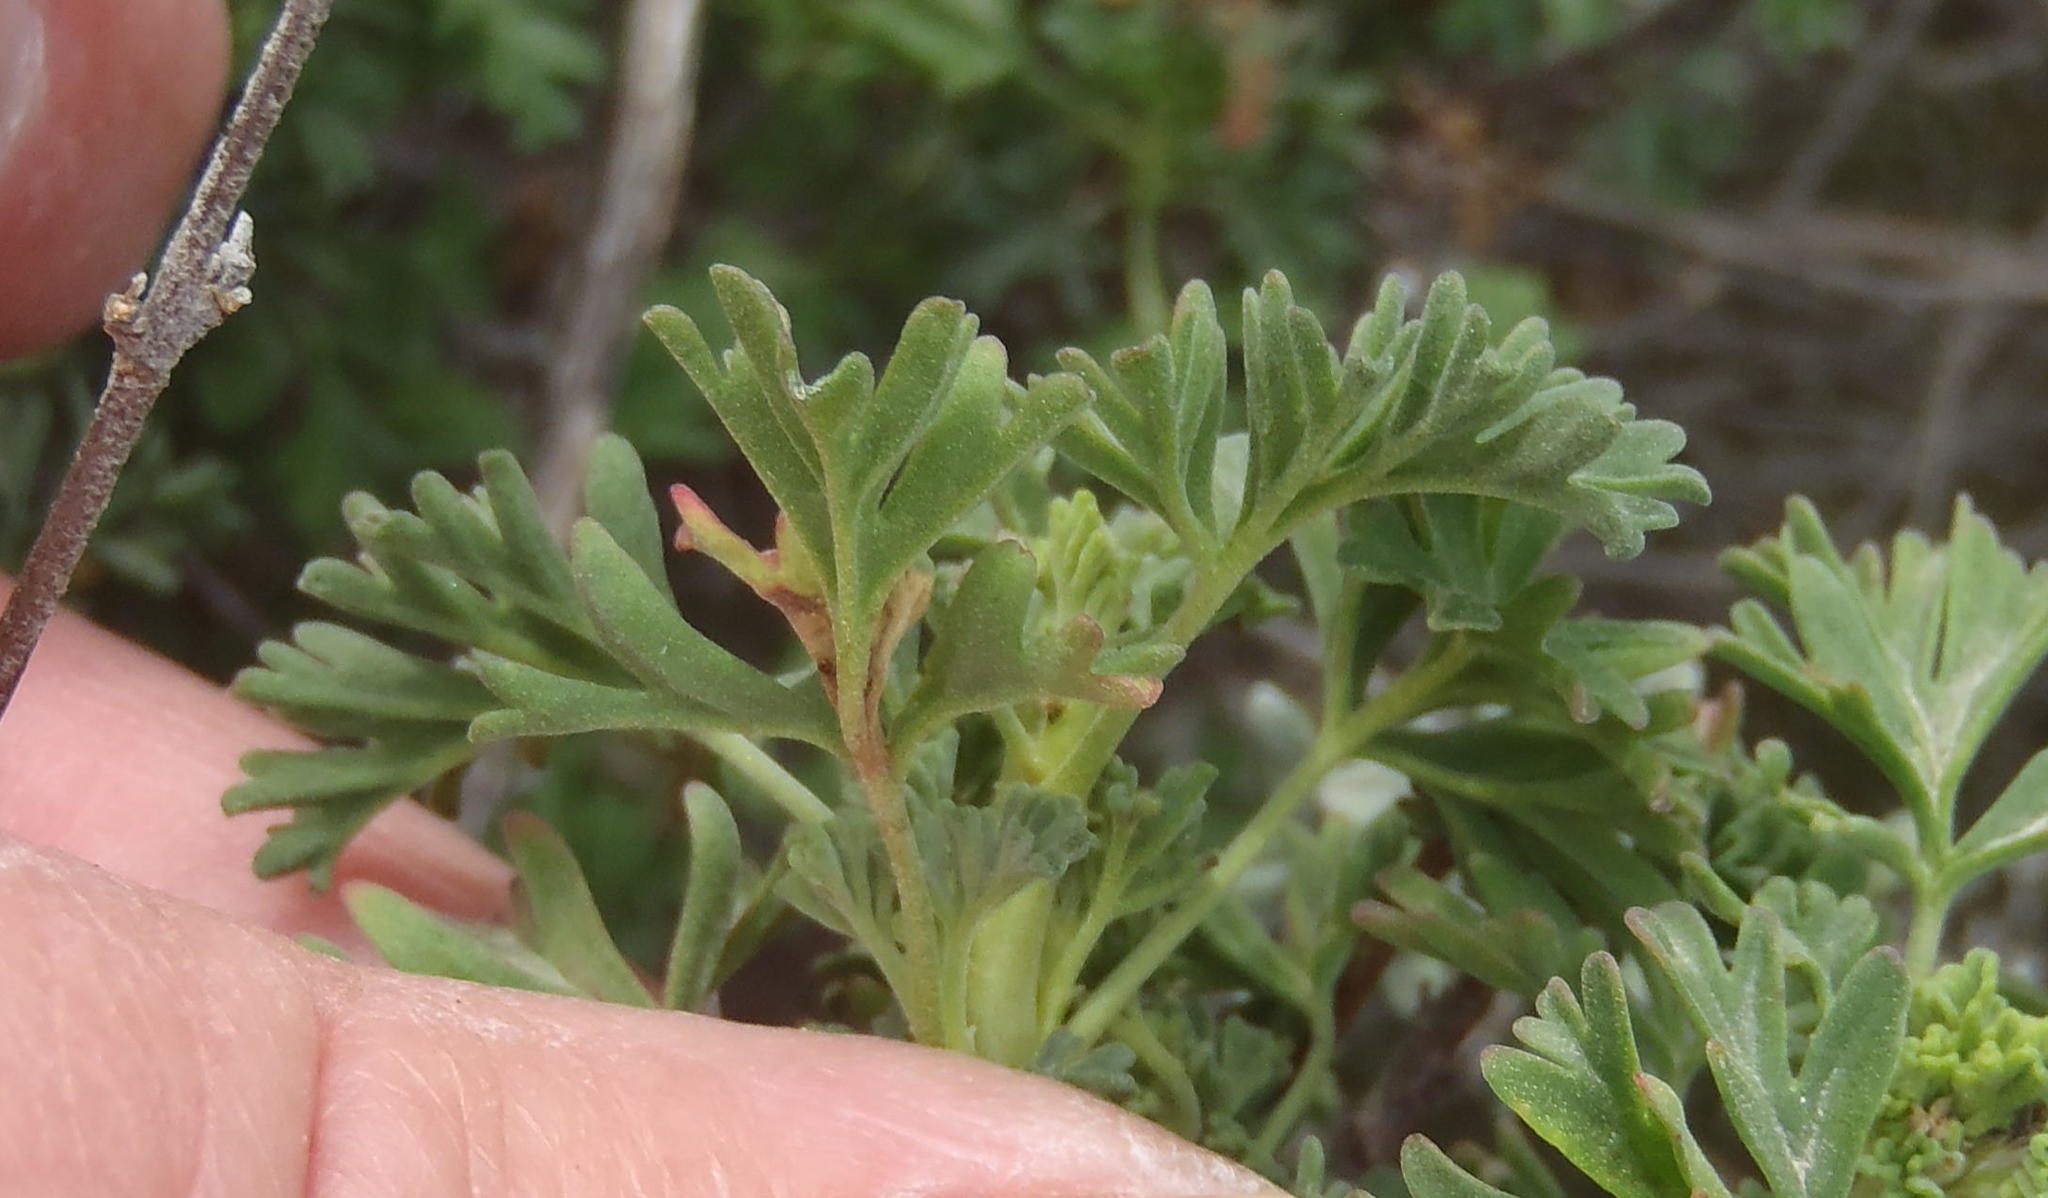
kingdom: Plantae
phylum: Tracheophyta
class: Magnoliopsida
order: Geraniales
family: Geraniaceae
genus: Pelargonium
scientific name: Pelargonium abrotanifolium
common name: Southernwood geranium
